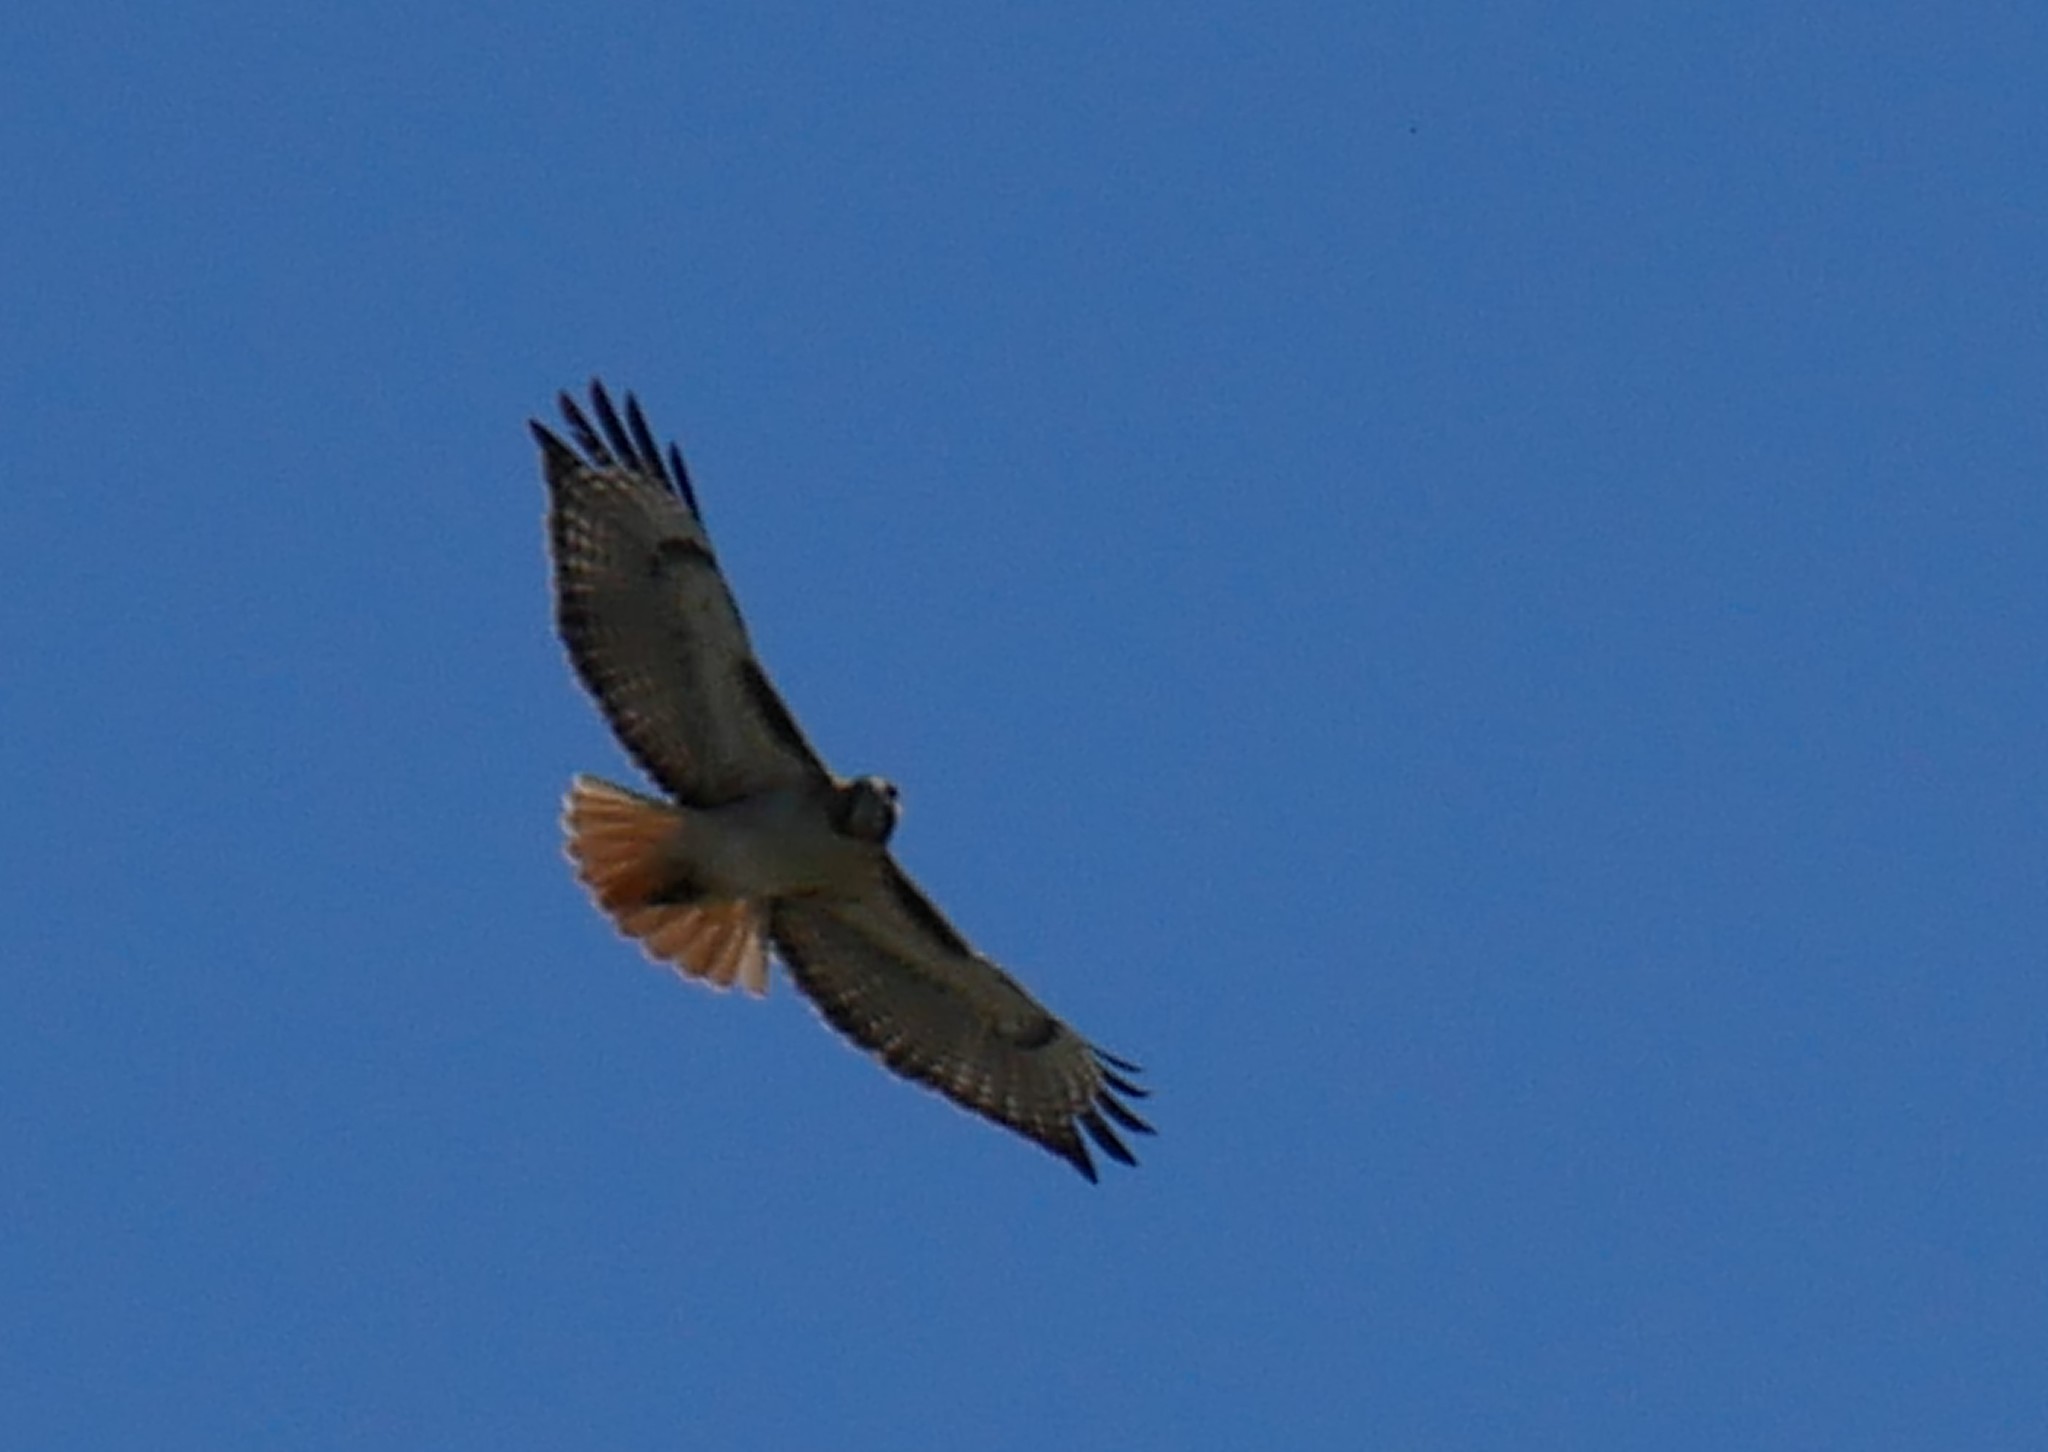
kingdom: Animalia
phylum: Chordata
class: Aves
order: Accipitriformes
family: Accipitridae
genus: Buteo
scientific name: Buteo jamaicensis
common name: Red-tailed hawk
